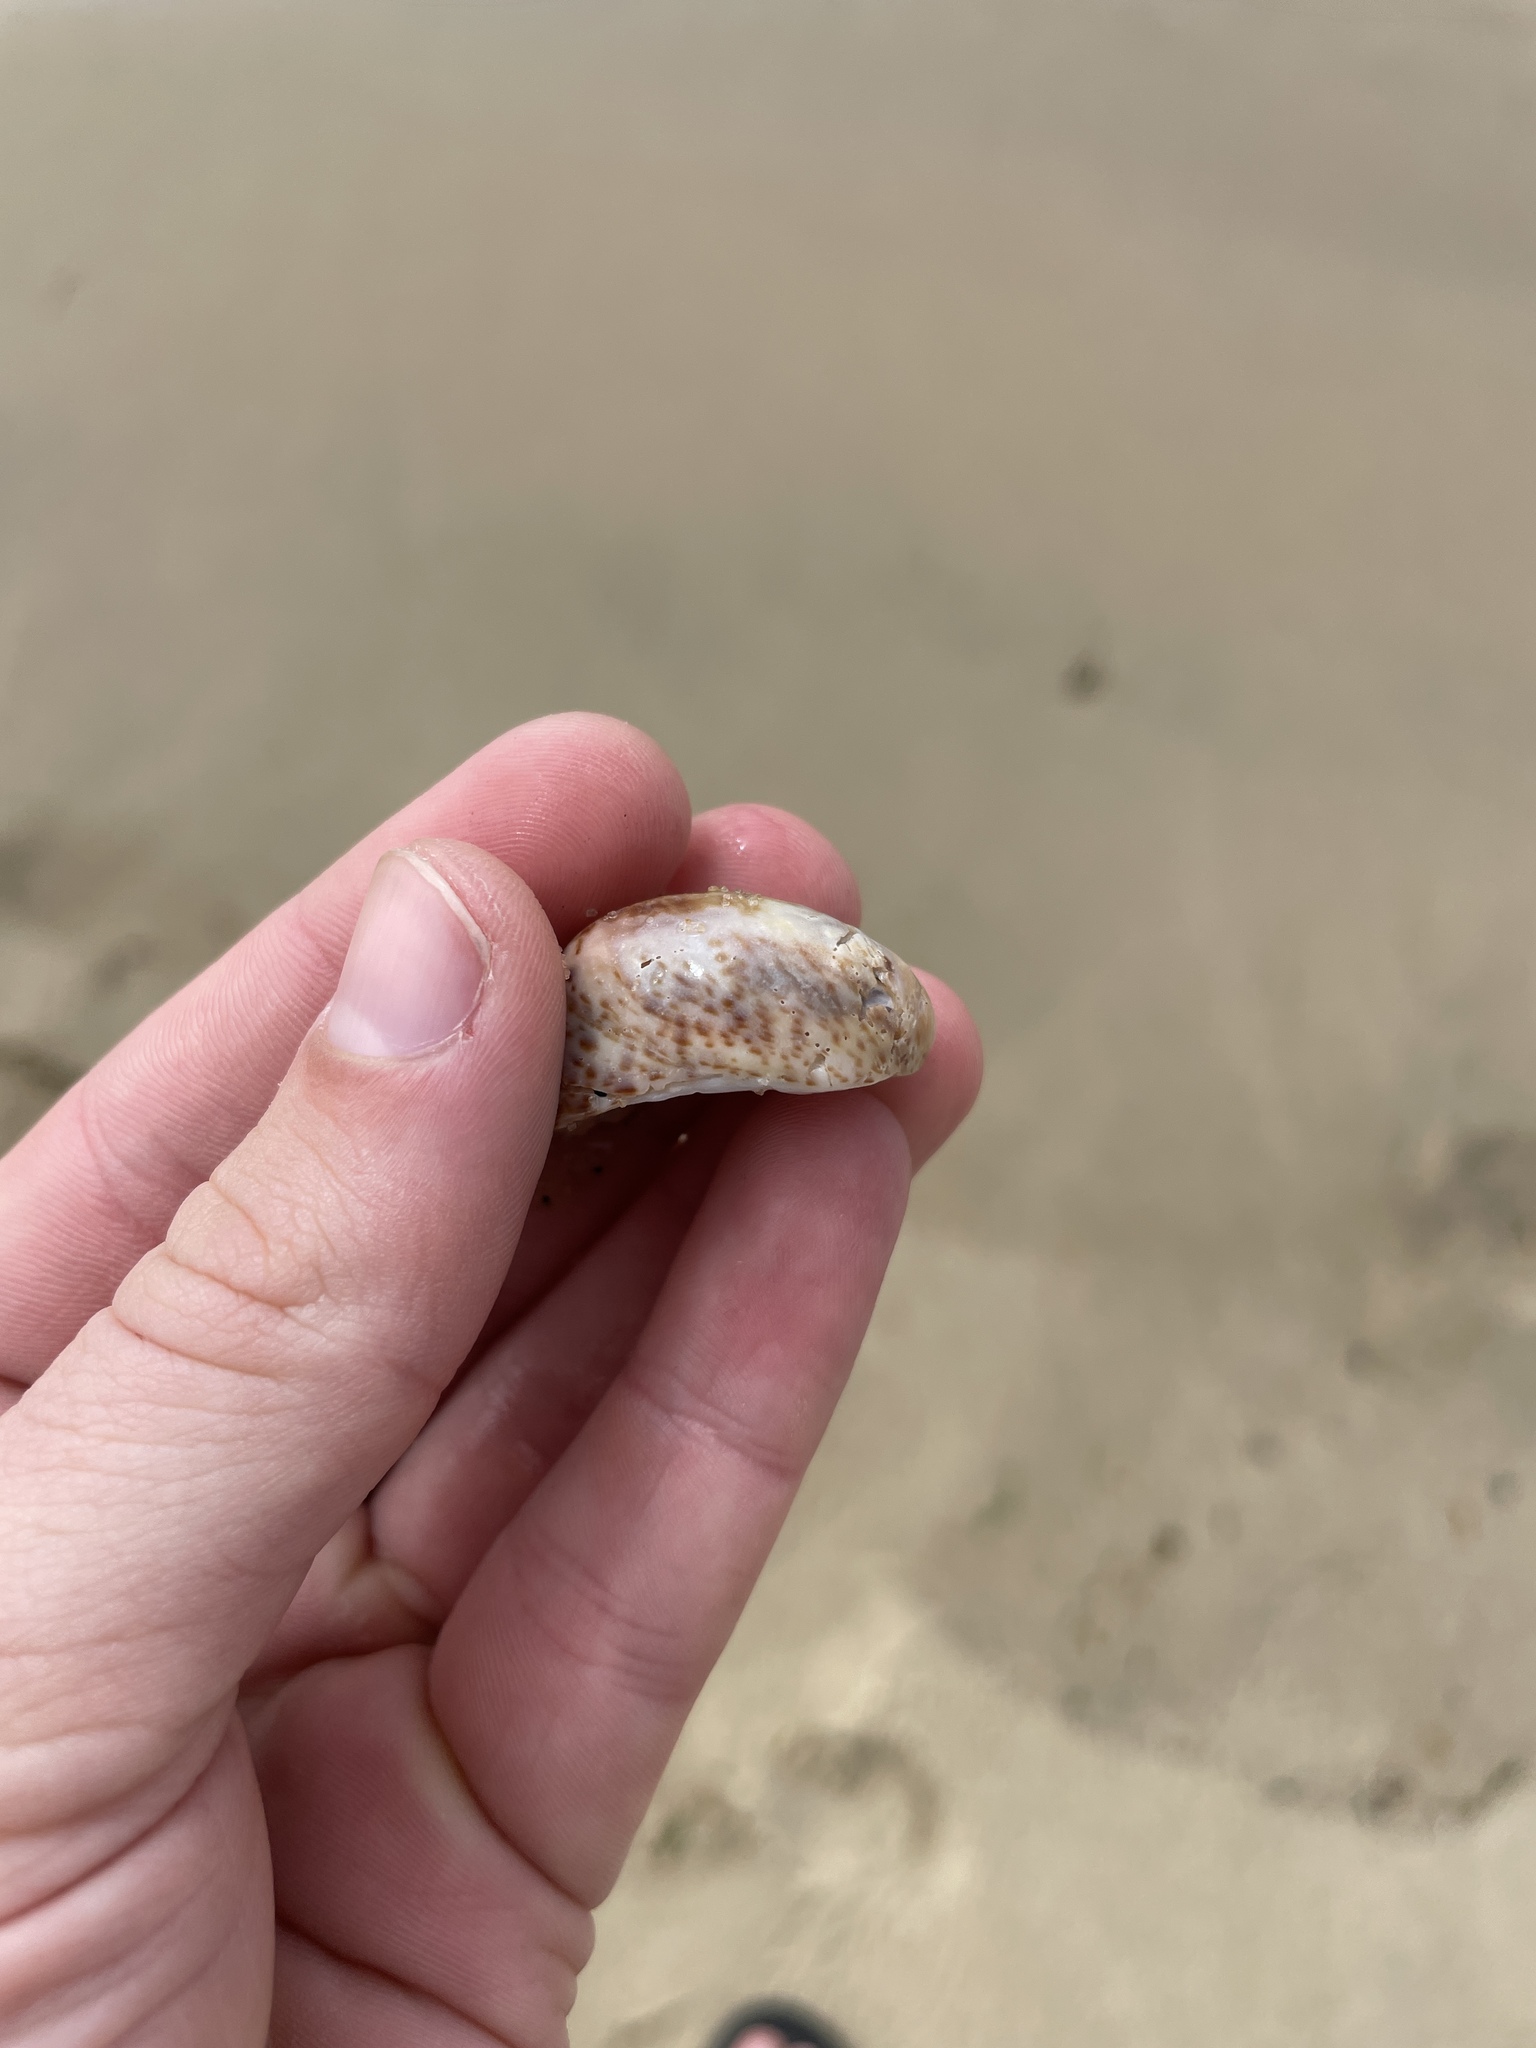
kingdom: Animalia
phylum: Mollusca
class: Gastropoda
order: Littorinimorpha
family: Calyptraeidae
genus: Crepidula
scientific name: Crepidula fornicata
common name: Slipper limpet
